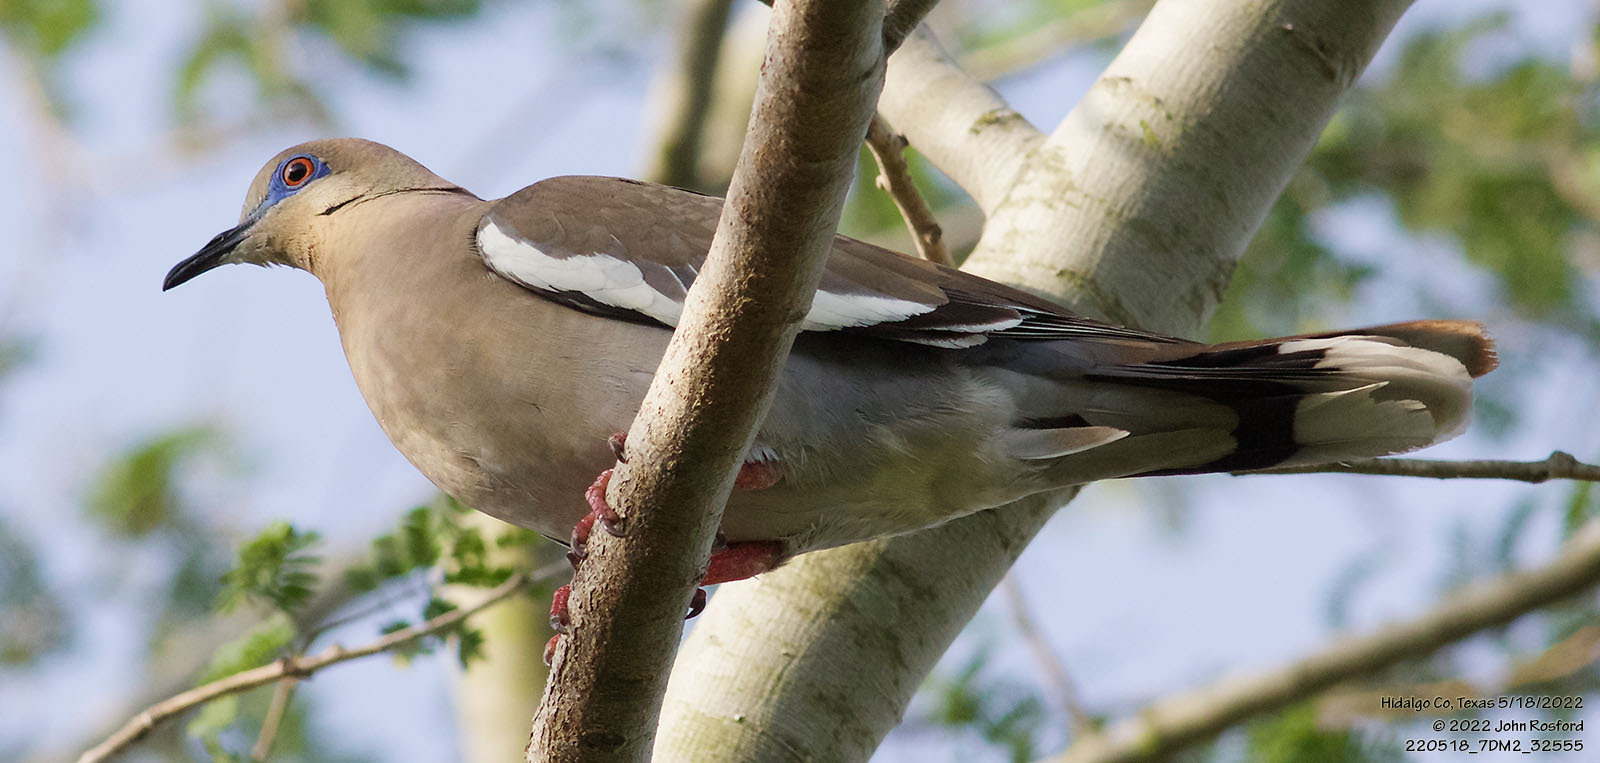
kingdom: Animalia
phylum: Chordata
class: Aves
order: Columbiformes
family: Columbidae
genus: Zenaida
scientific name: Zenaida asiatica
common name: White-winged dove
